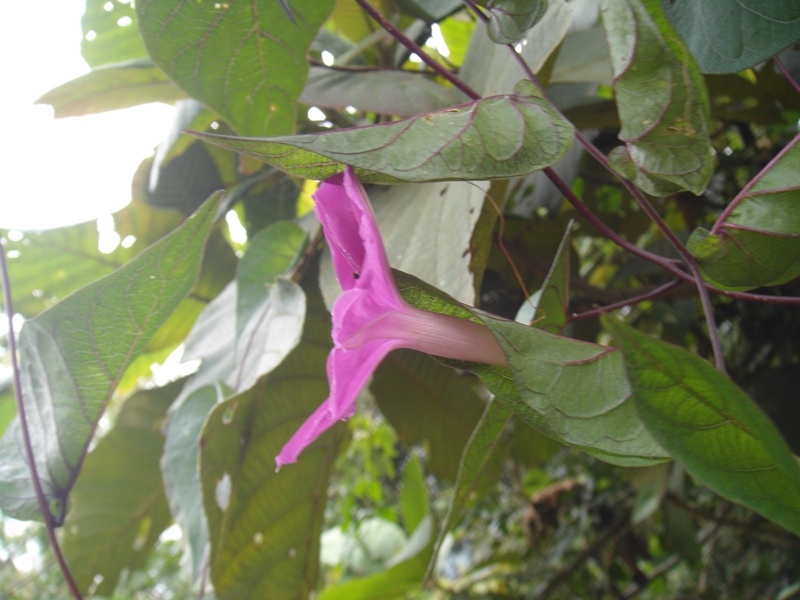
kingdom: Plantae
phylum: Tracheophyta
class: Magnoliopsida
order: Solanales
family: Convolvulaceae
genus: Ipomoea
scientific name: Ipomoea dumosa
